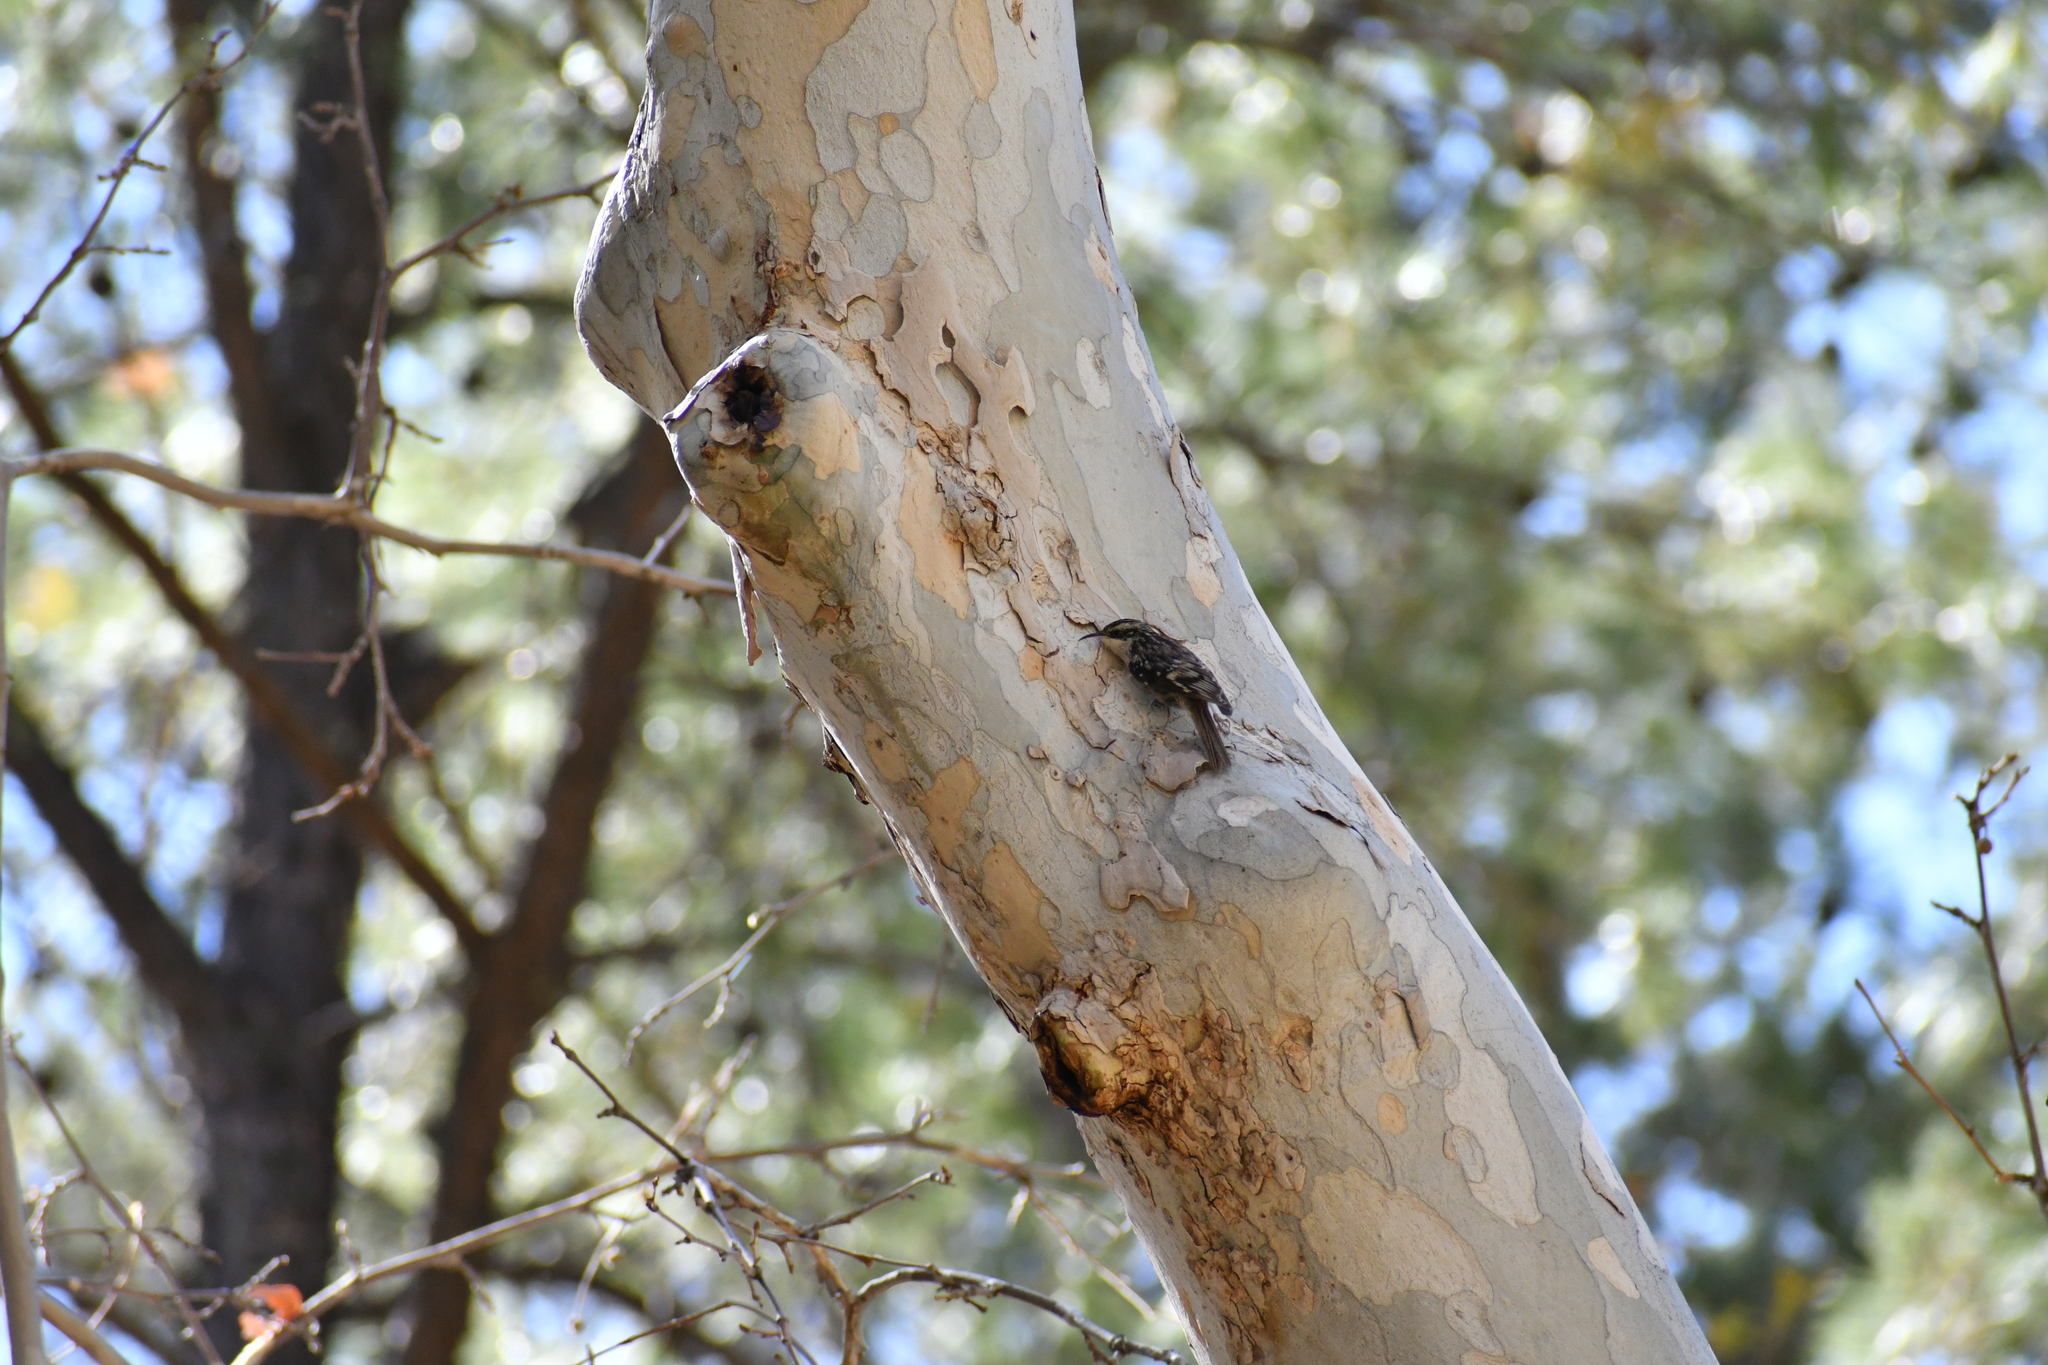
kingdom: Animalia
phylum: Chordata
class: Aves
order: Passeriformes
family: Certhiidae
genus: Certhia
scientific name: Certhia americana
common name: Brown creeper
